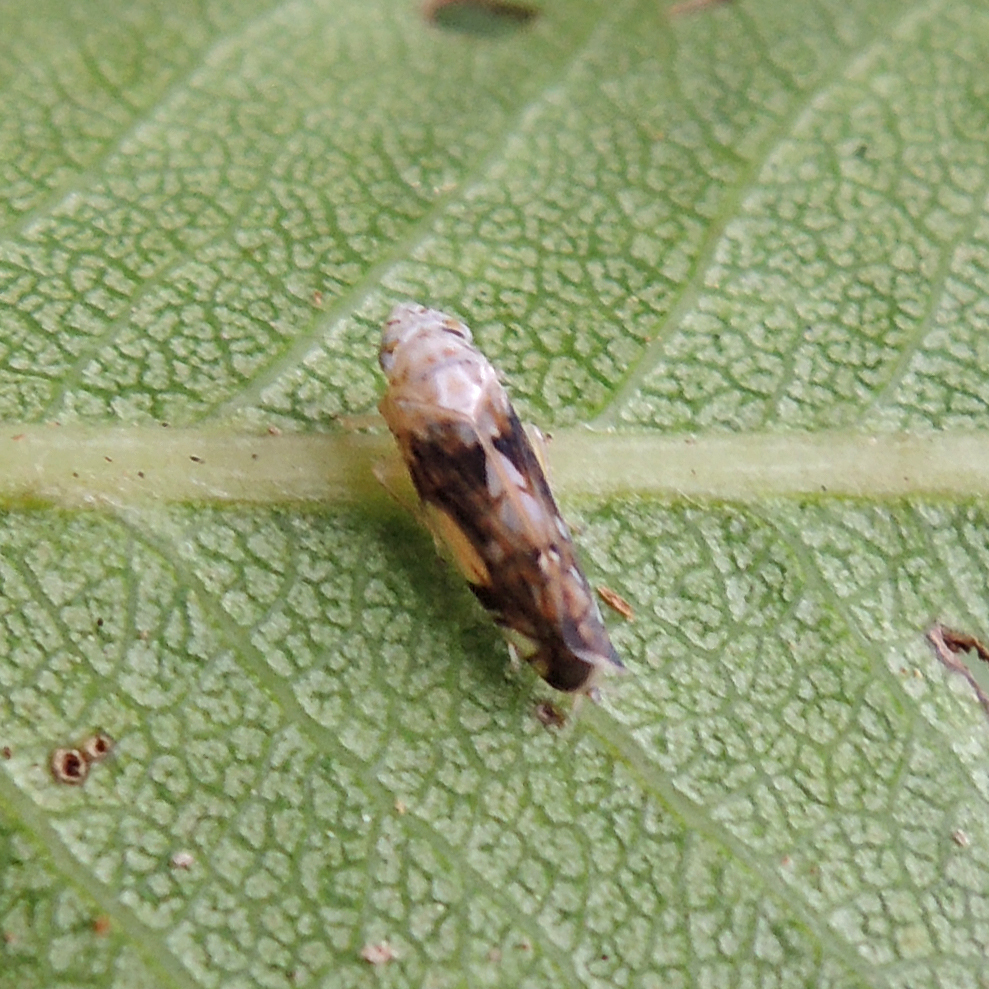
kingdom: Animalia
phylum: Arthropoda
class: Insecta
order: Hemiptera
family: Cicadellidae
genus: Scaphoideus
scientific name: Scaphoideus intricatus
